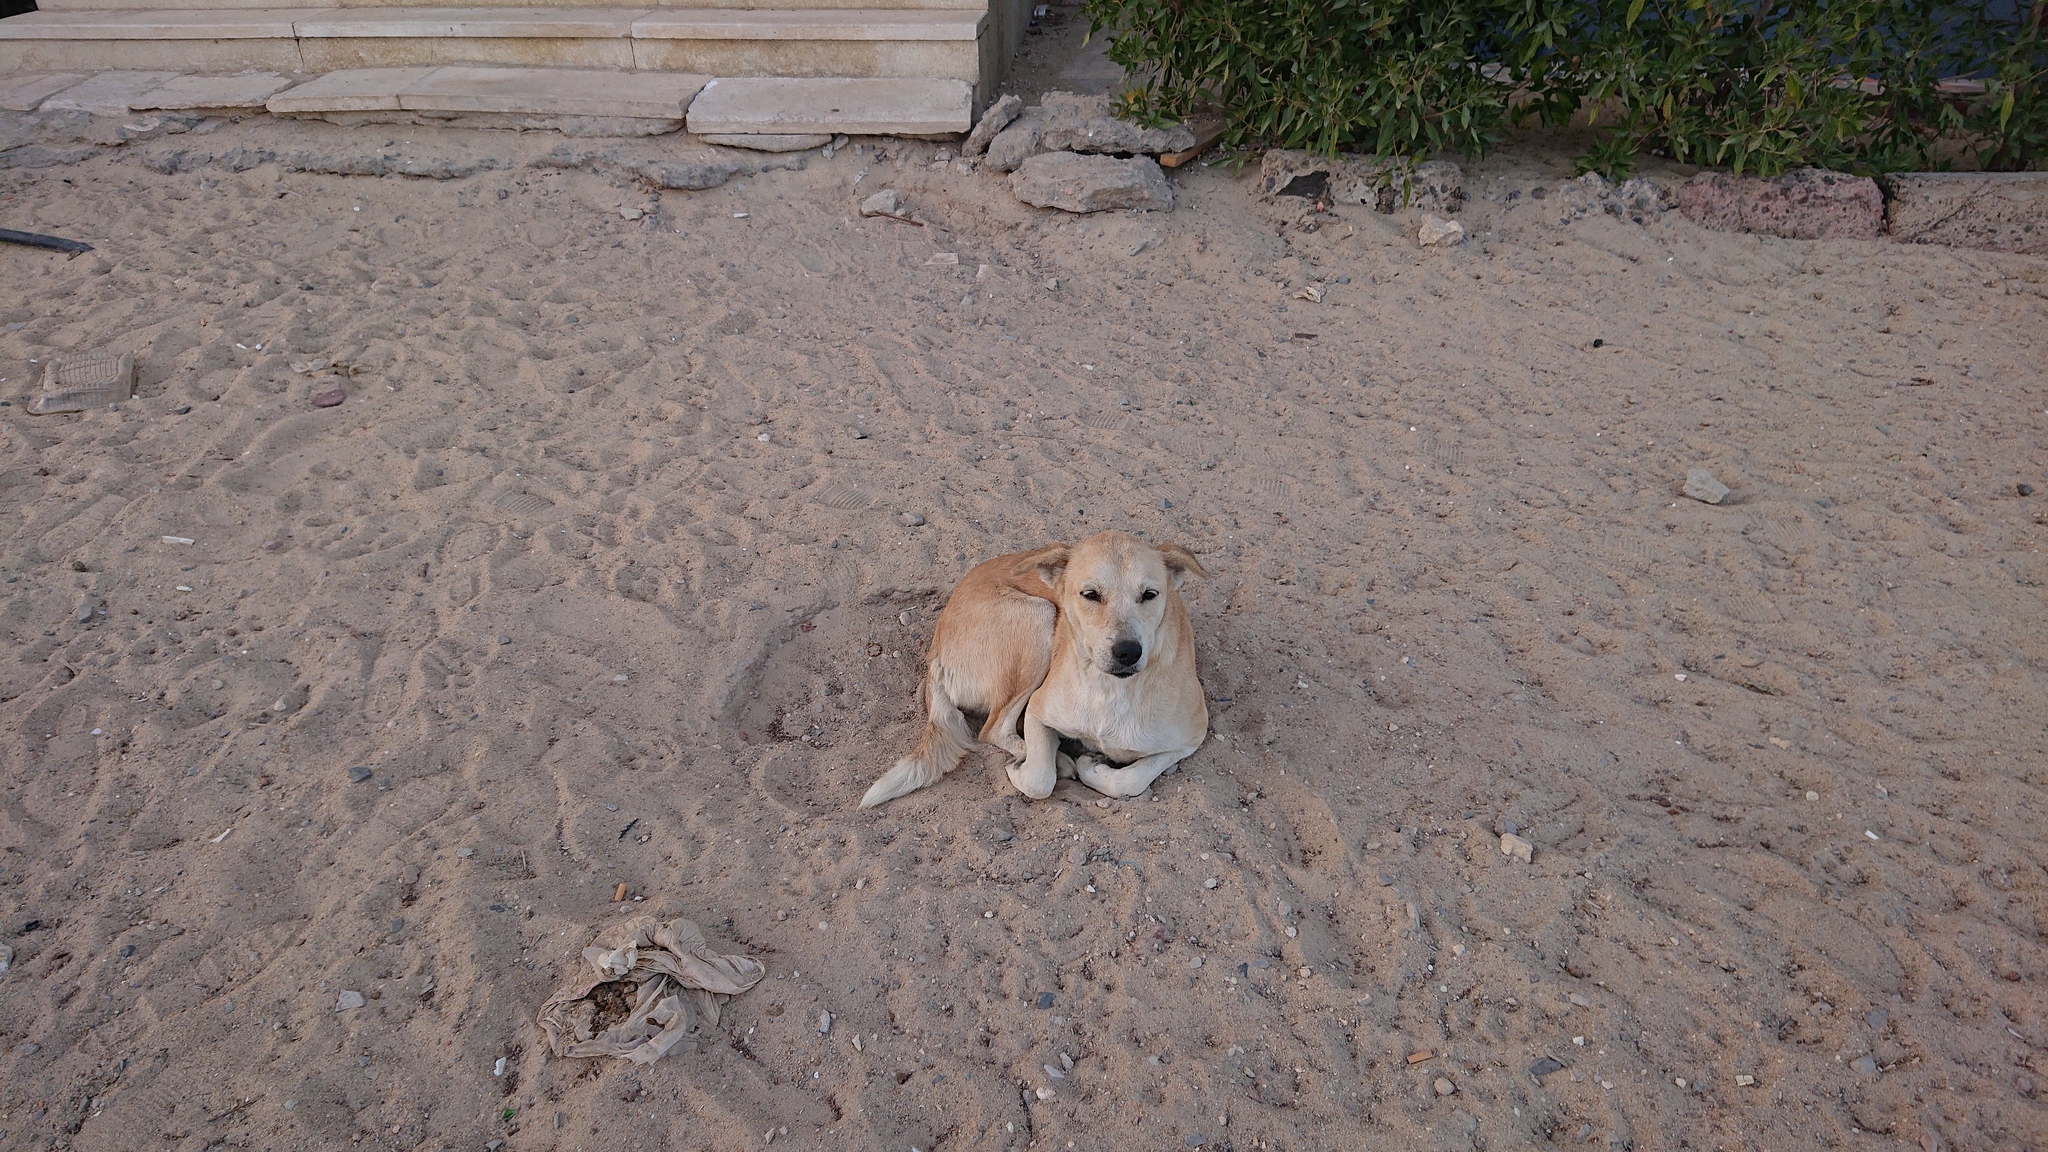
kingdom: Animalia
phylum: Chordata
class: Mammalia
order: Carnivora
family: Canidae
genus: Canis
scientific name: Canis lupus
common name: Gray wolf
